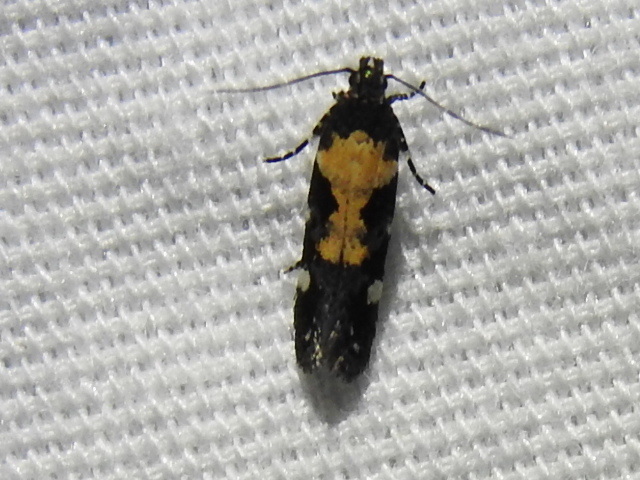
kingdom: Animalia
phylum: Arthropoda
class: Insecta
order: Lepidoptera
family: Gelechiidae
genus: Stegasta
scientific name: Stegasta bosqueella
